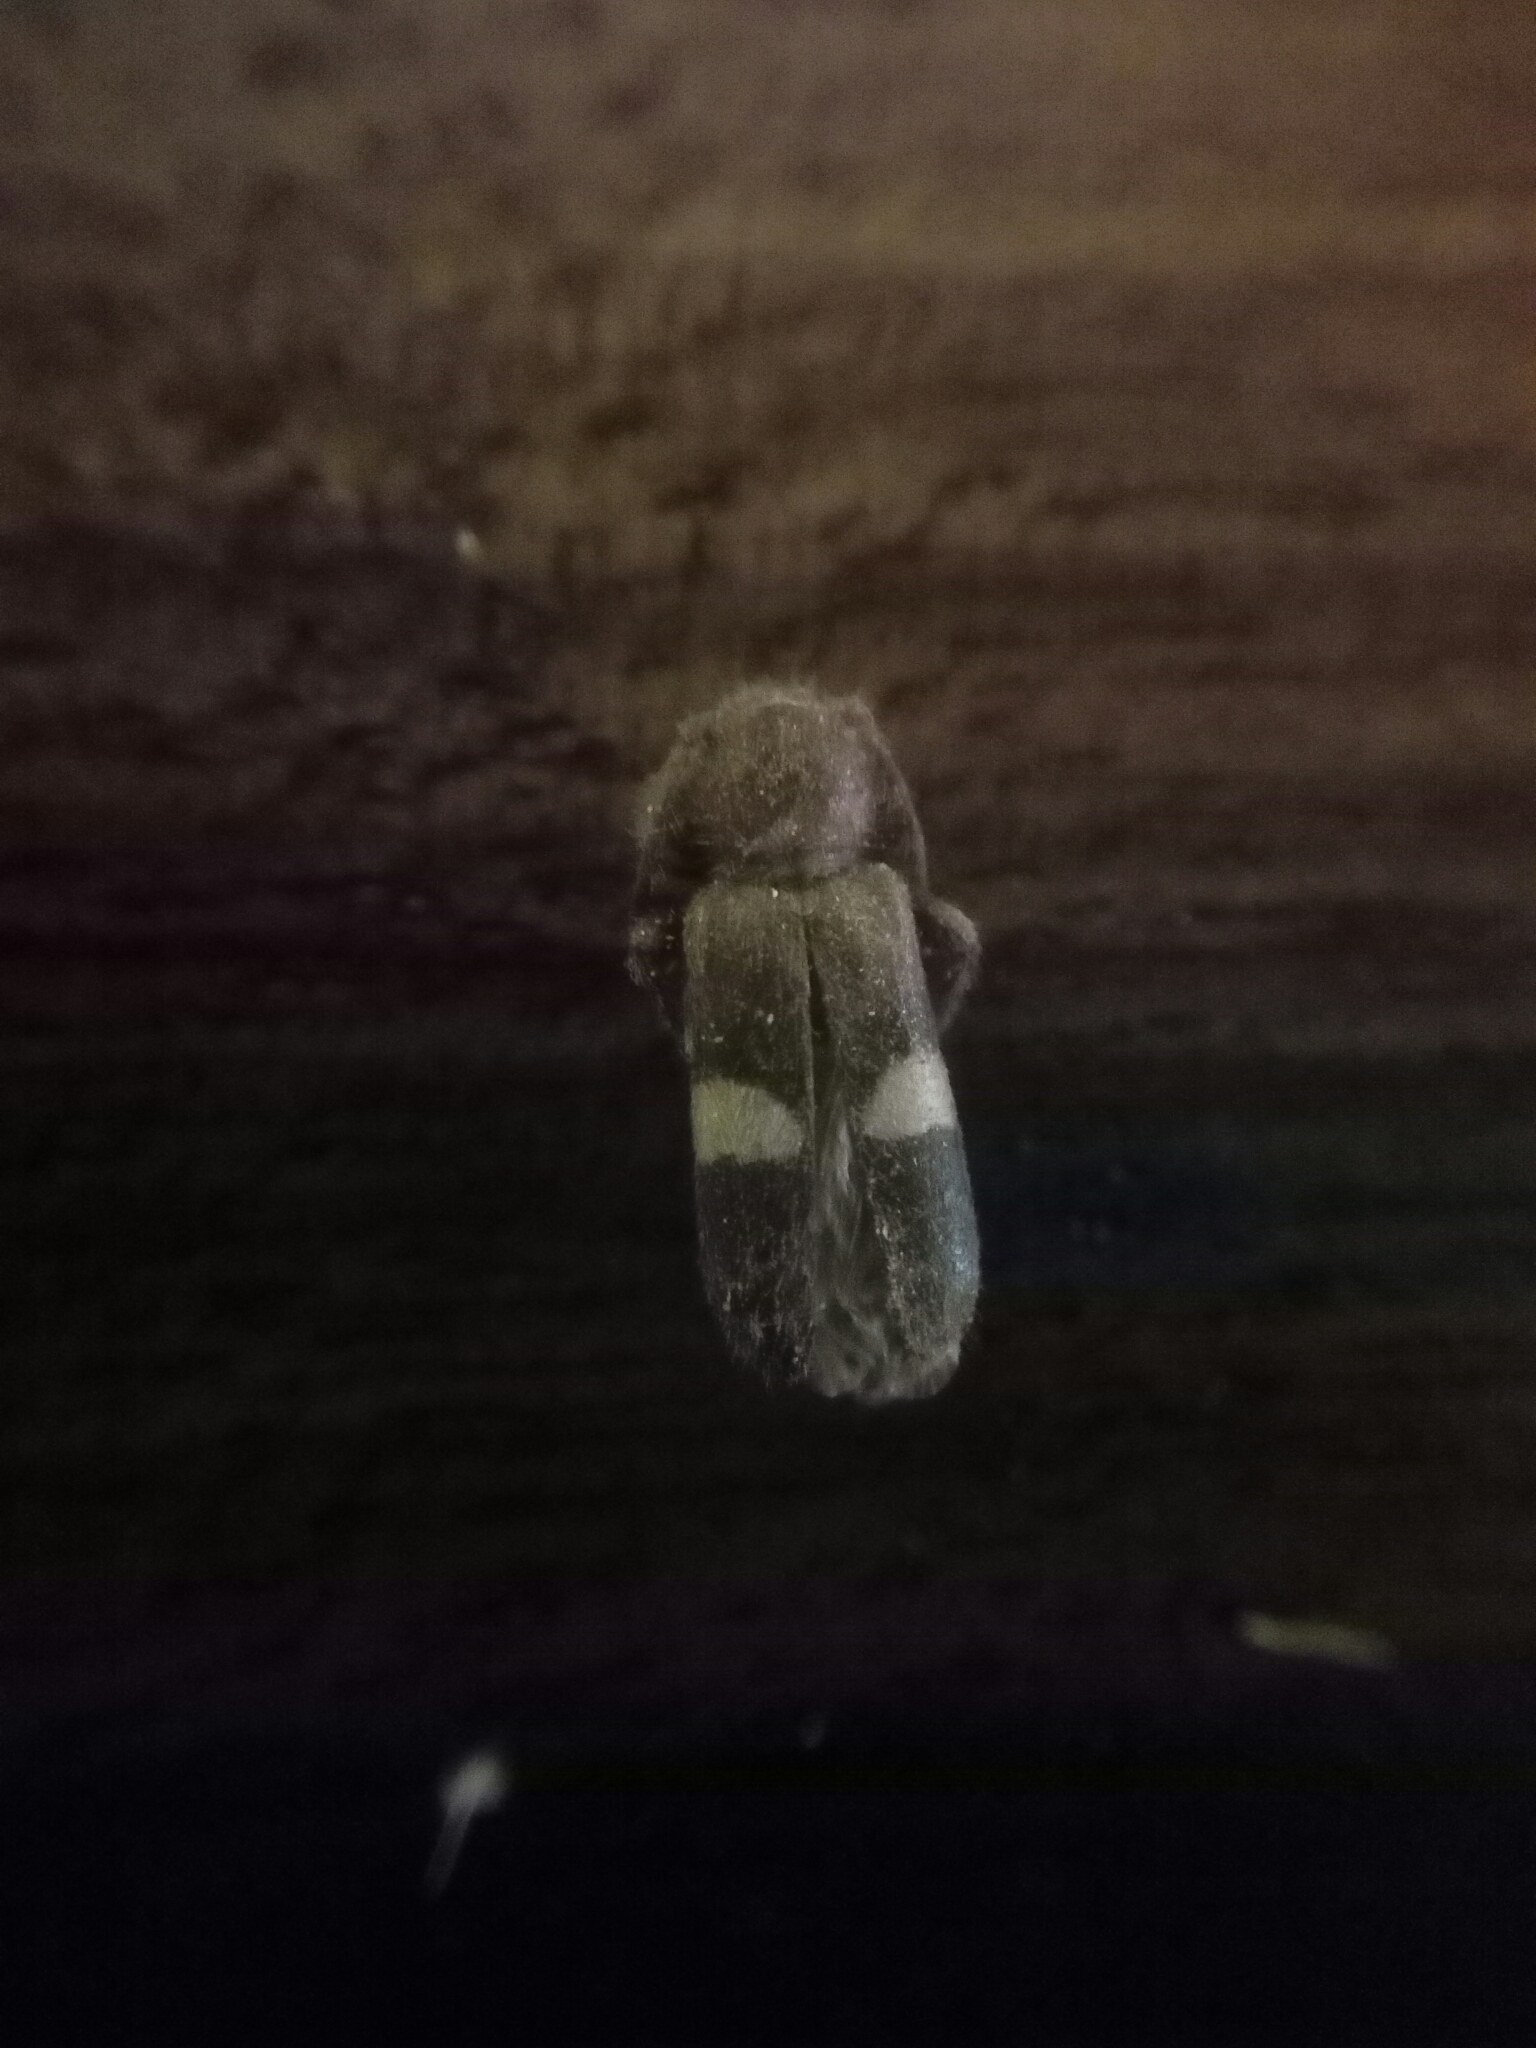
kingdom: Animalia
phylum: Arthropoda
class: Insecta
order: Coleoptera
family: Cerambycidae
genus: Poecilium
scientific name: Poecilium fasciatum
